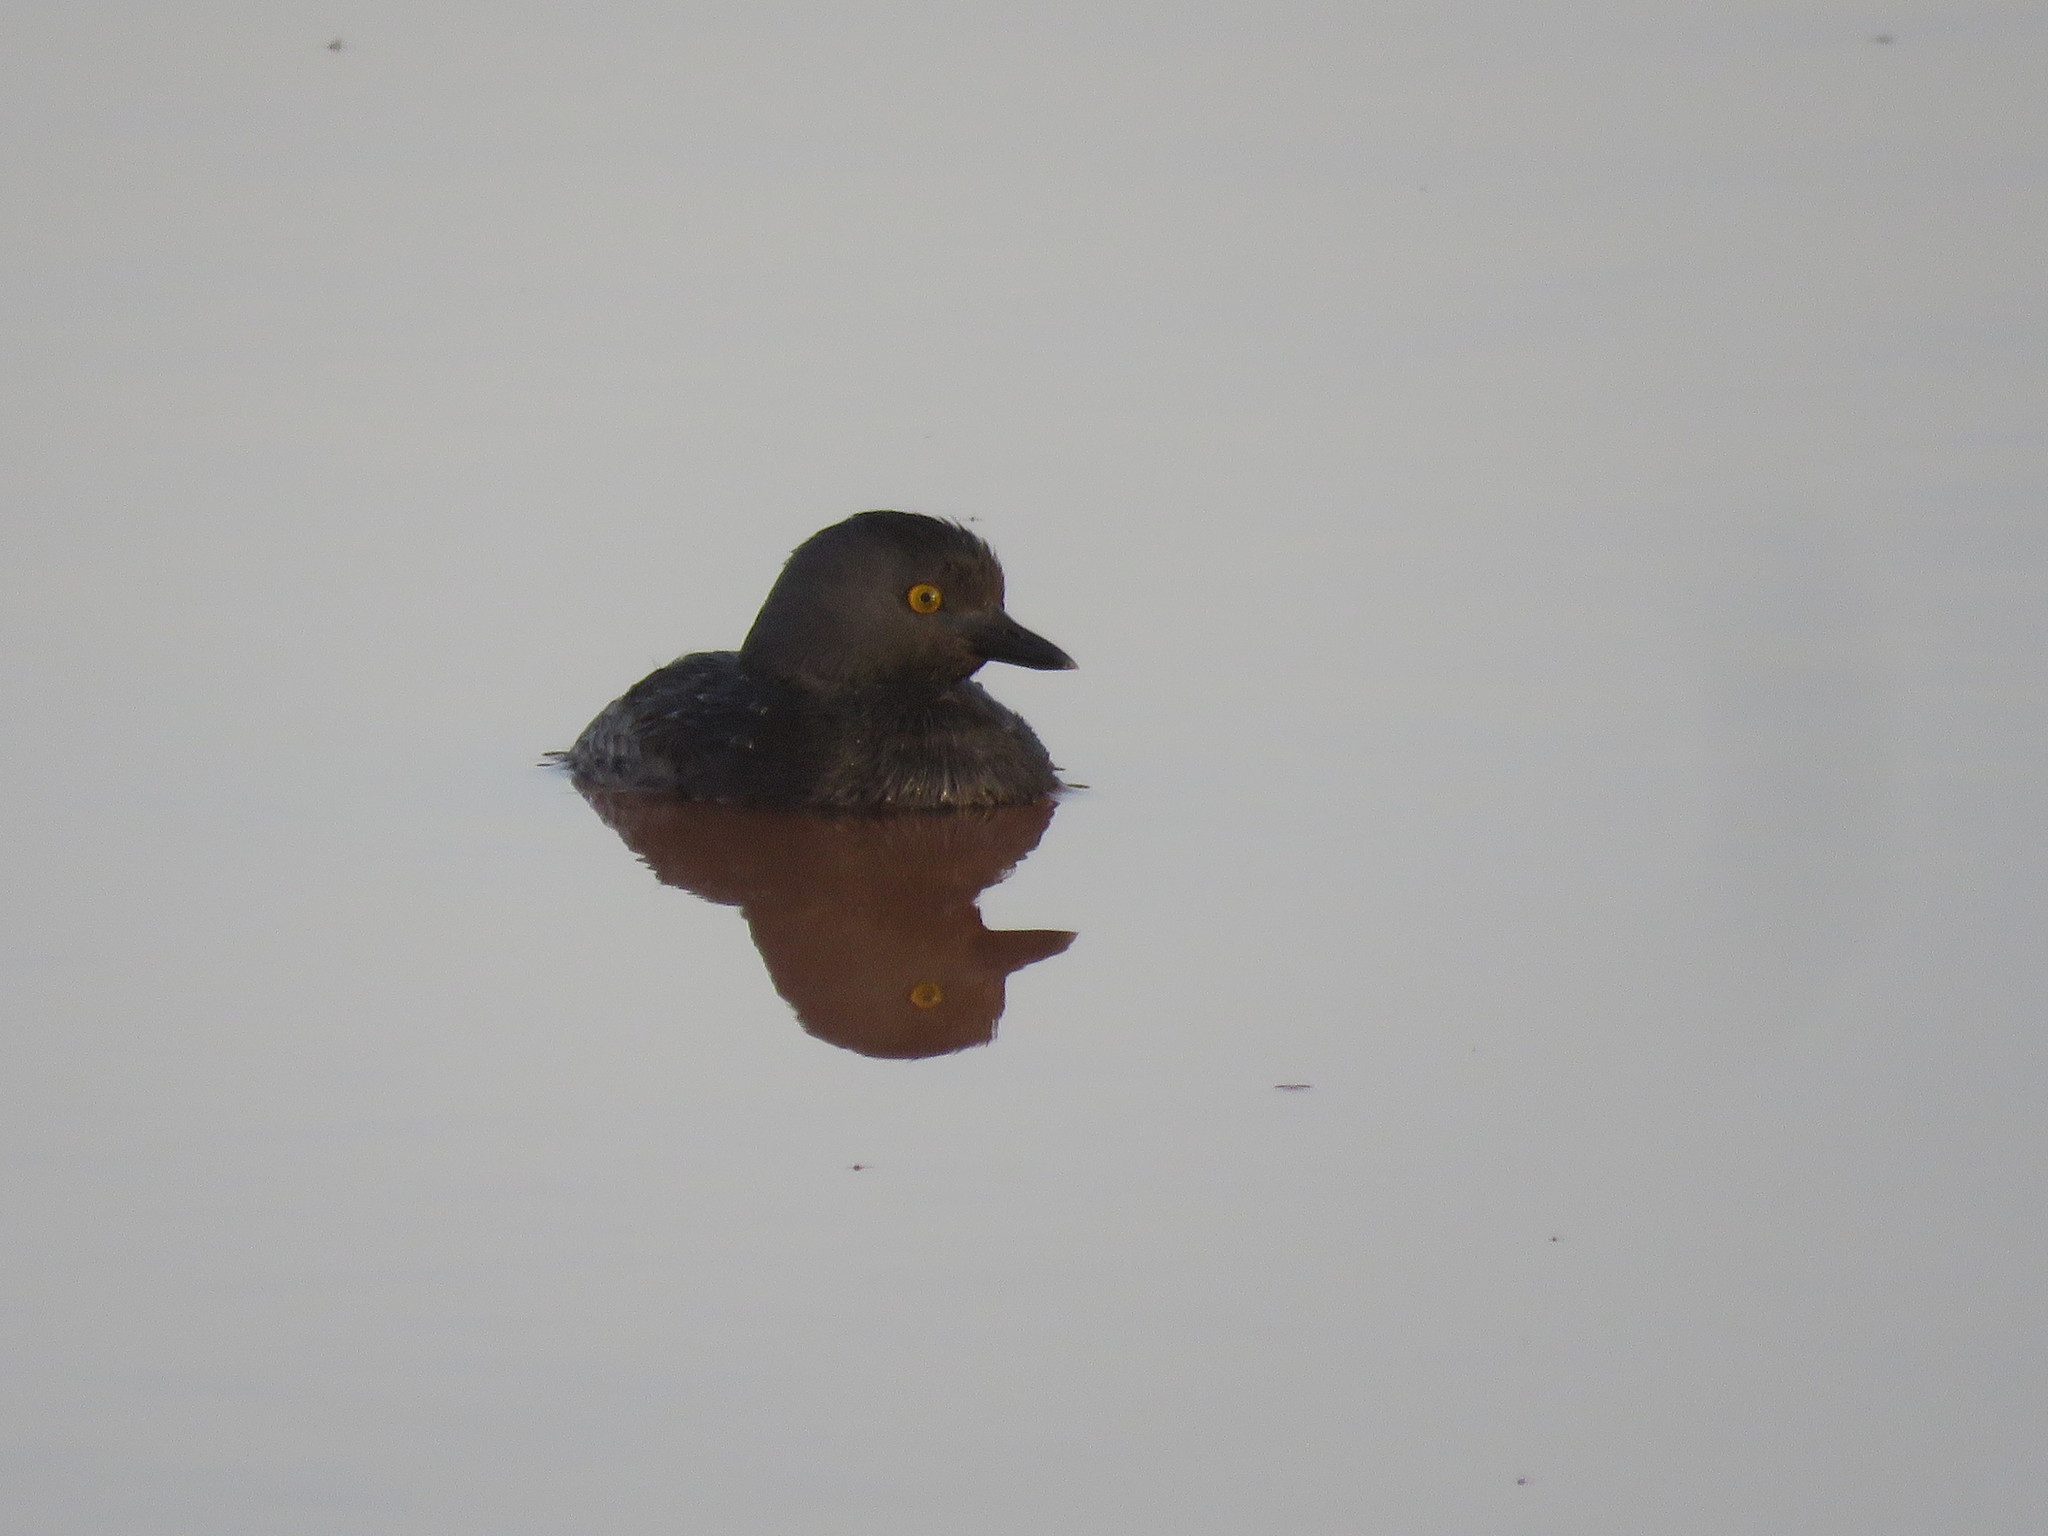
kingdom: Animalia
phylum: Chordata
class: Aves
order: Podicipediformes
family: Podicipedidae
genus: Tachybaptus
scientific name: Tachybaptus dominicus
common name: Least grebe
